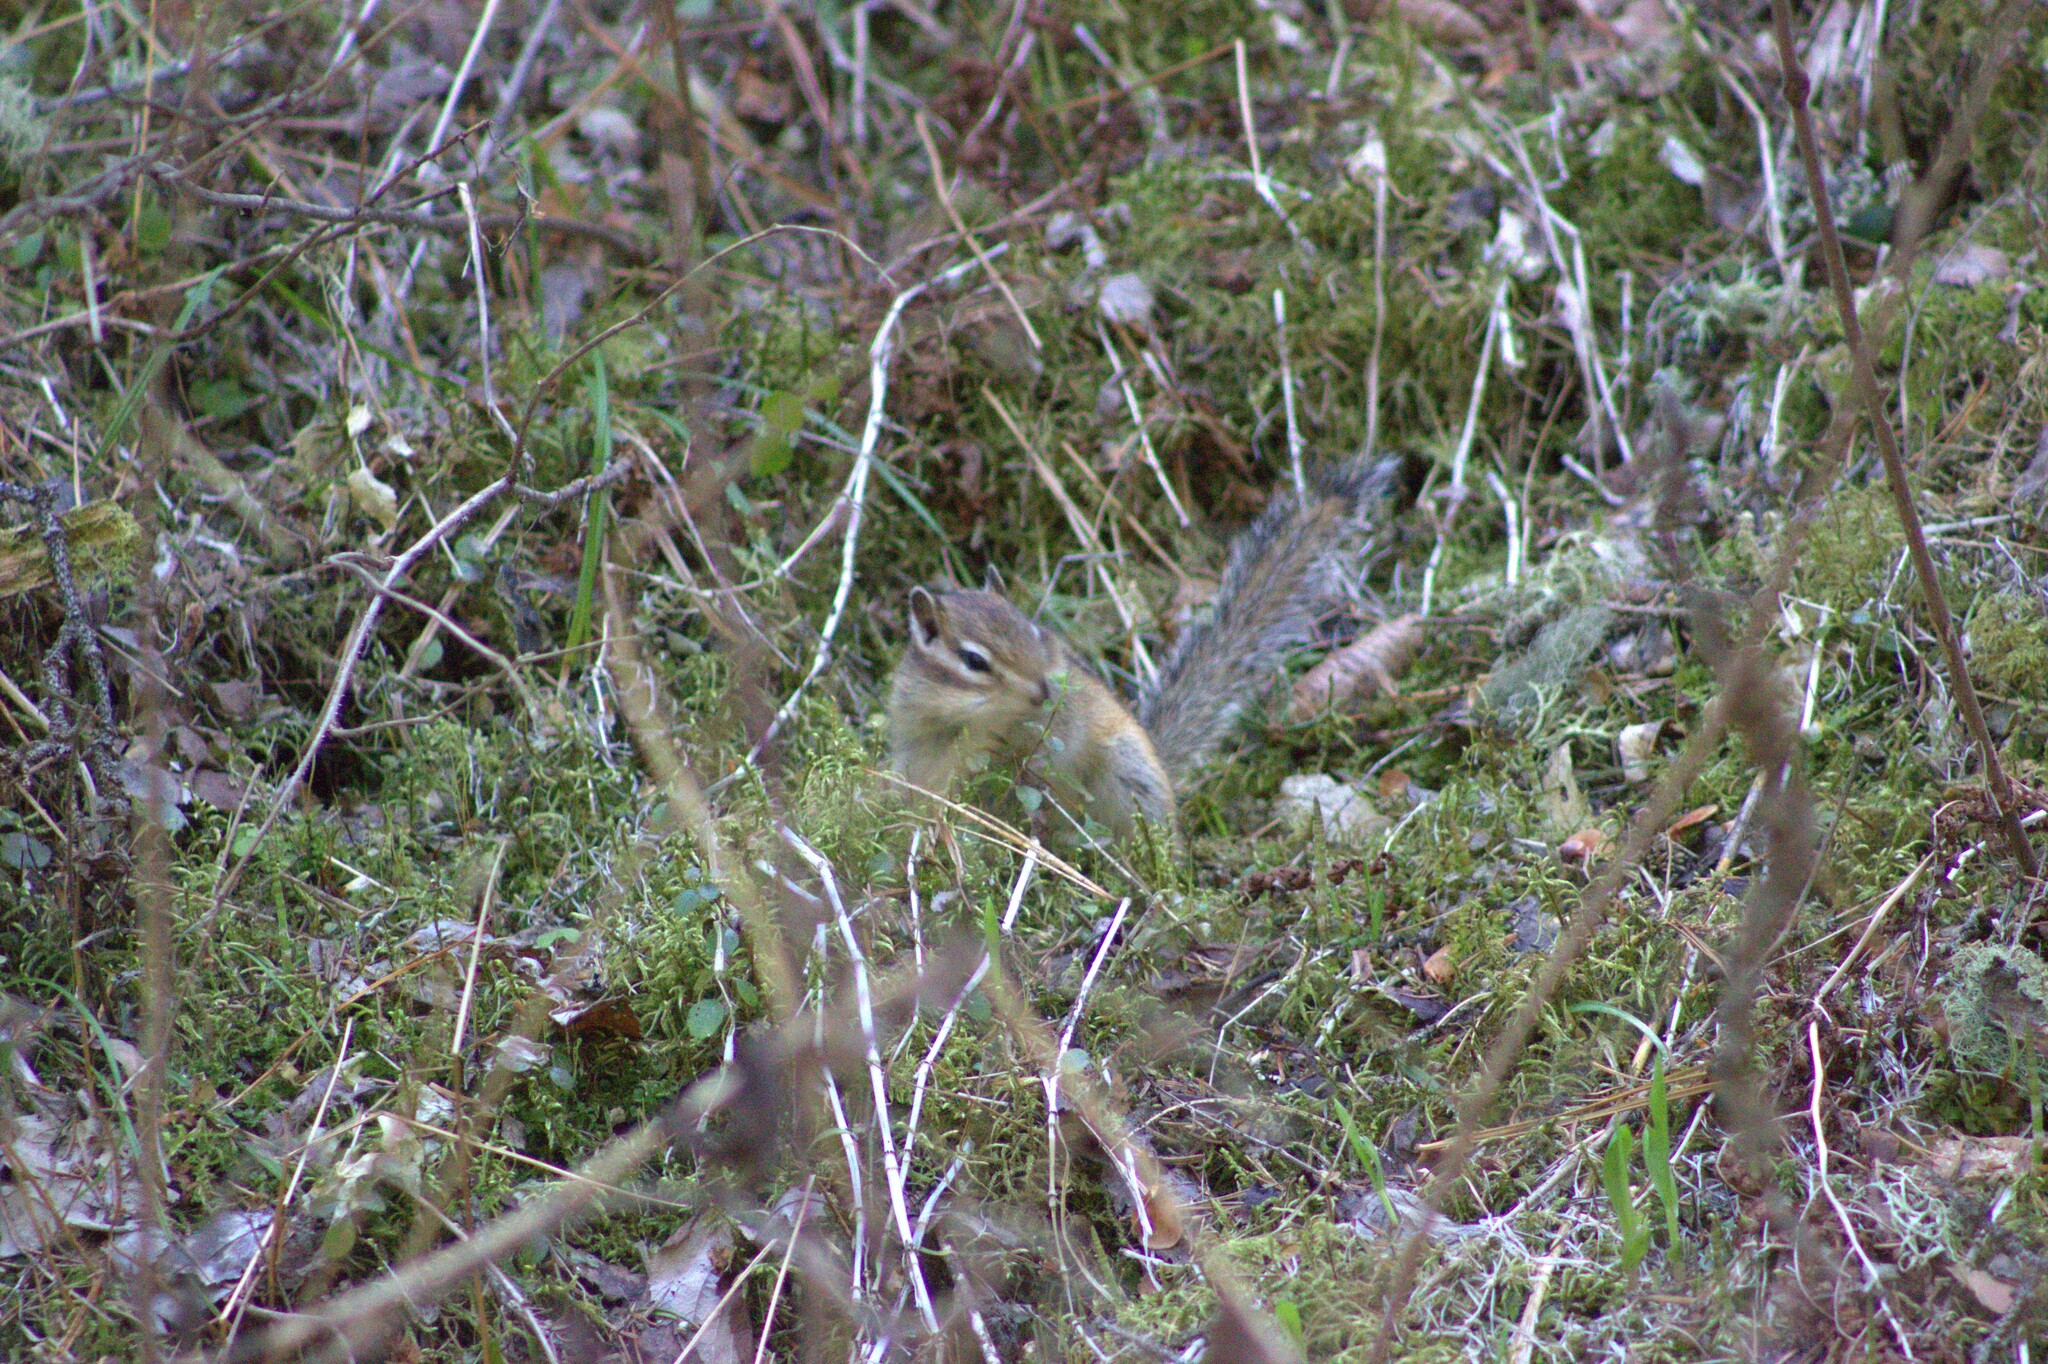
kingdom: Animalia
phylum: Chordata
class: Mammalia
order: Rodentia
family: Sciuridae
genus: Tamias
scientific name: Tamias sibiricus
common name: Siberian chipmunk
